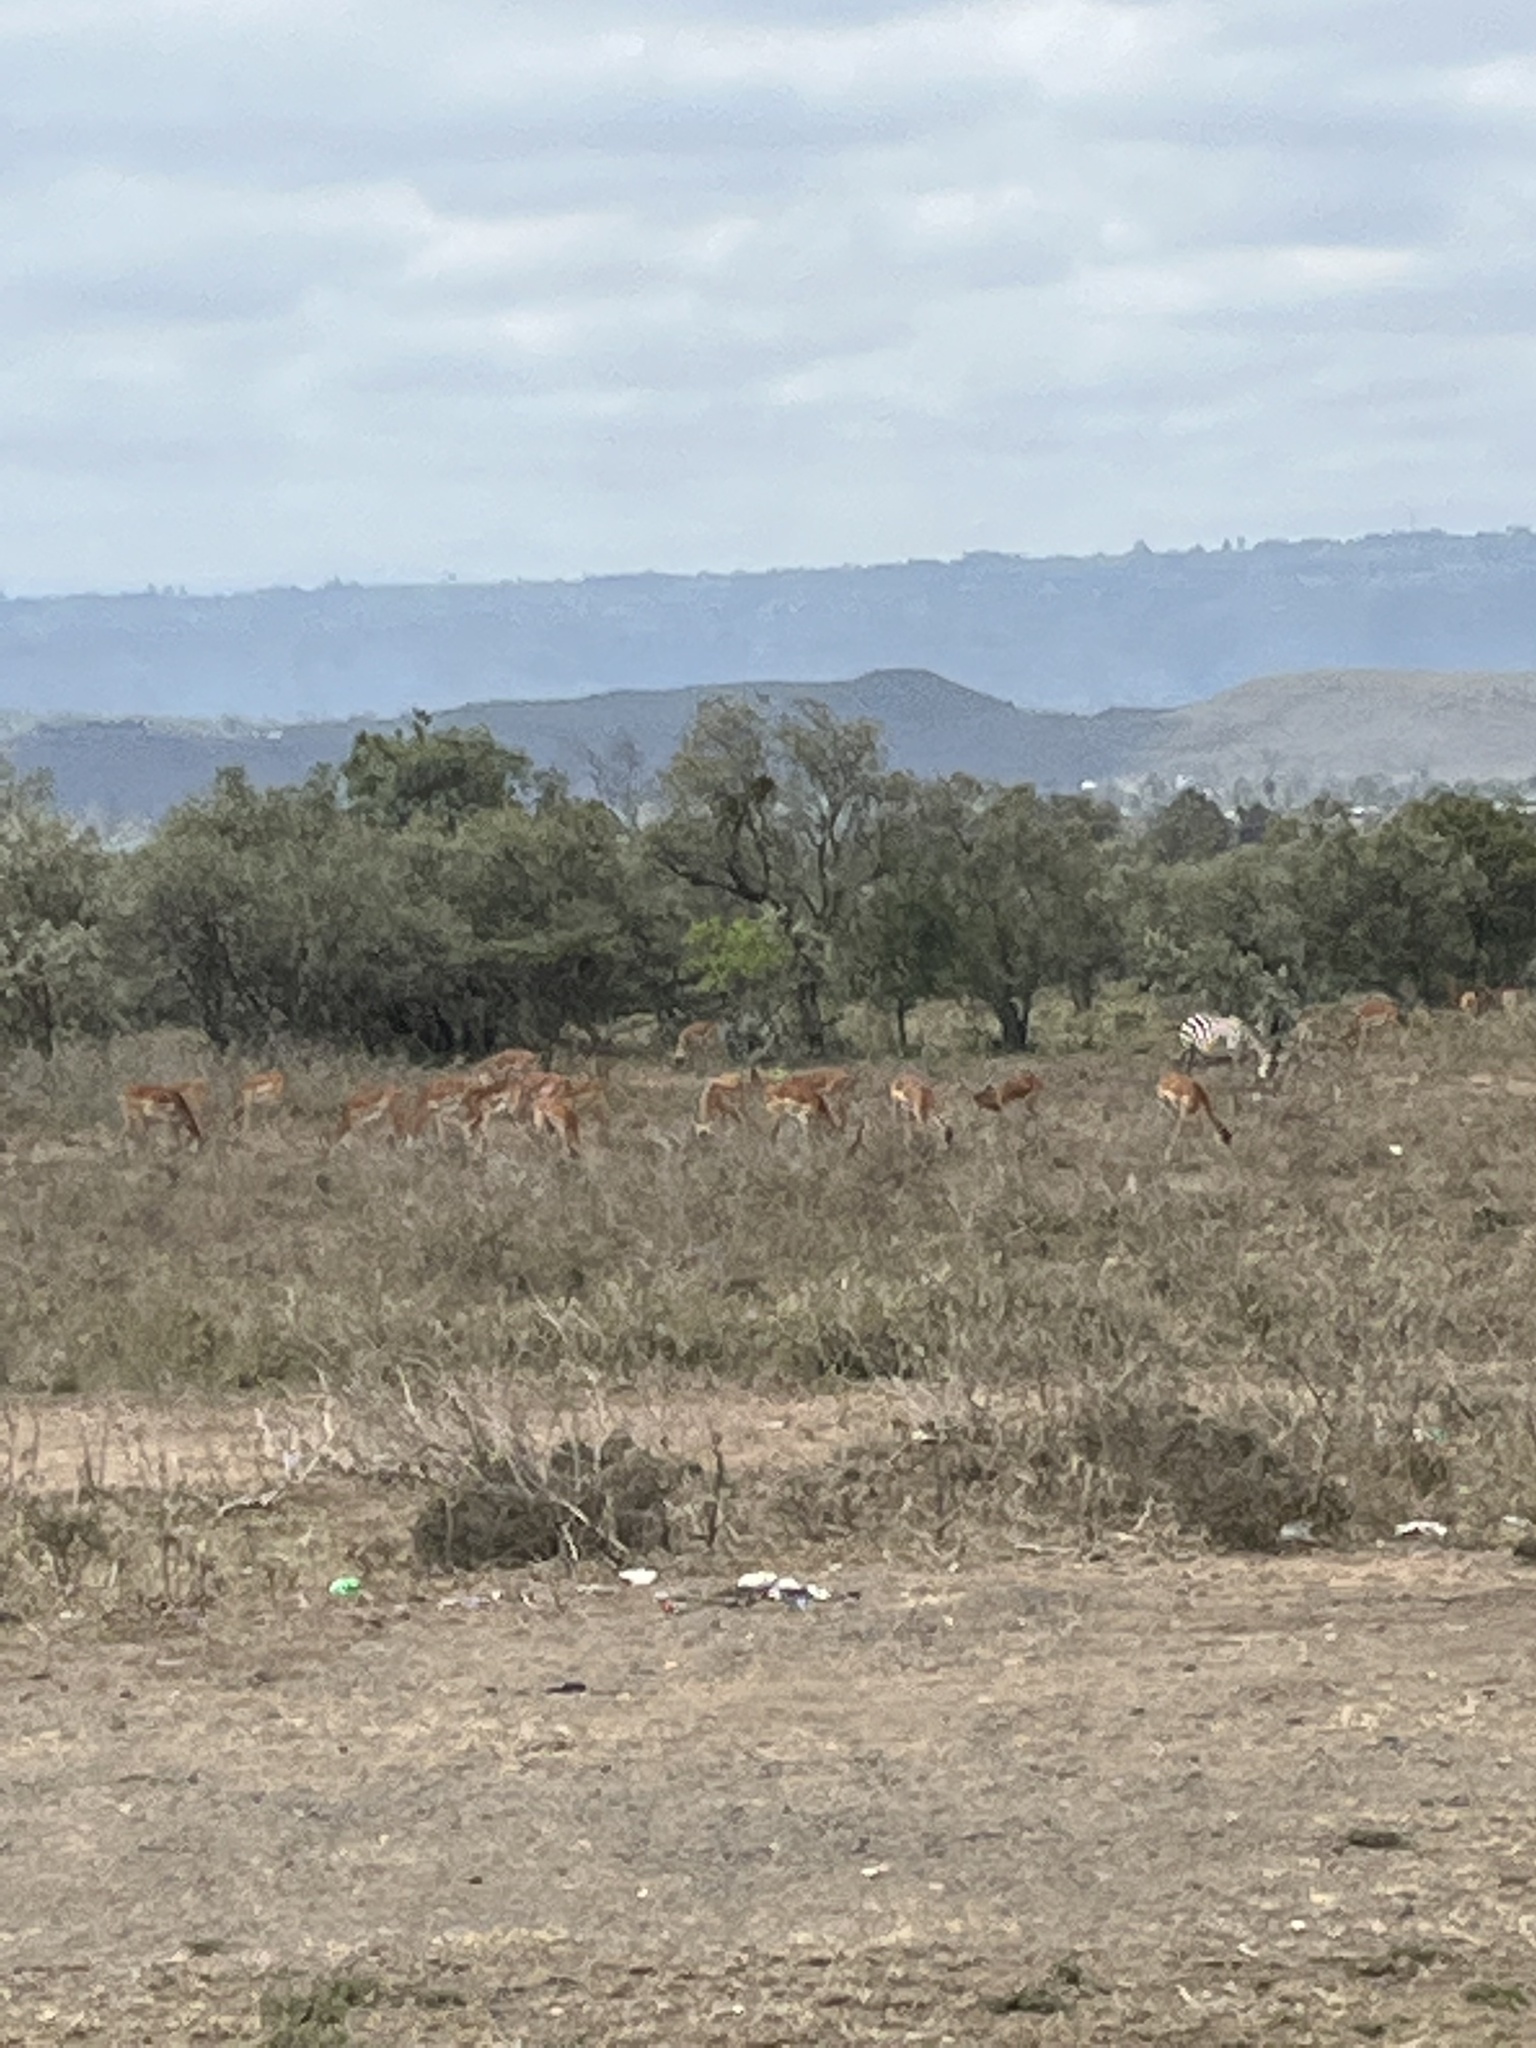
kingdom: Animalia
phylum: Chordata
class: Mammalia
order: Artiodactyla
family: Bovidae
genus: Aepyceros
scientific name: Aepyceros melampus
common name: Impala
